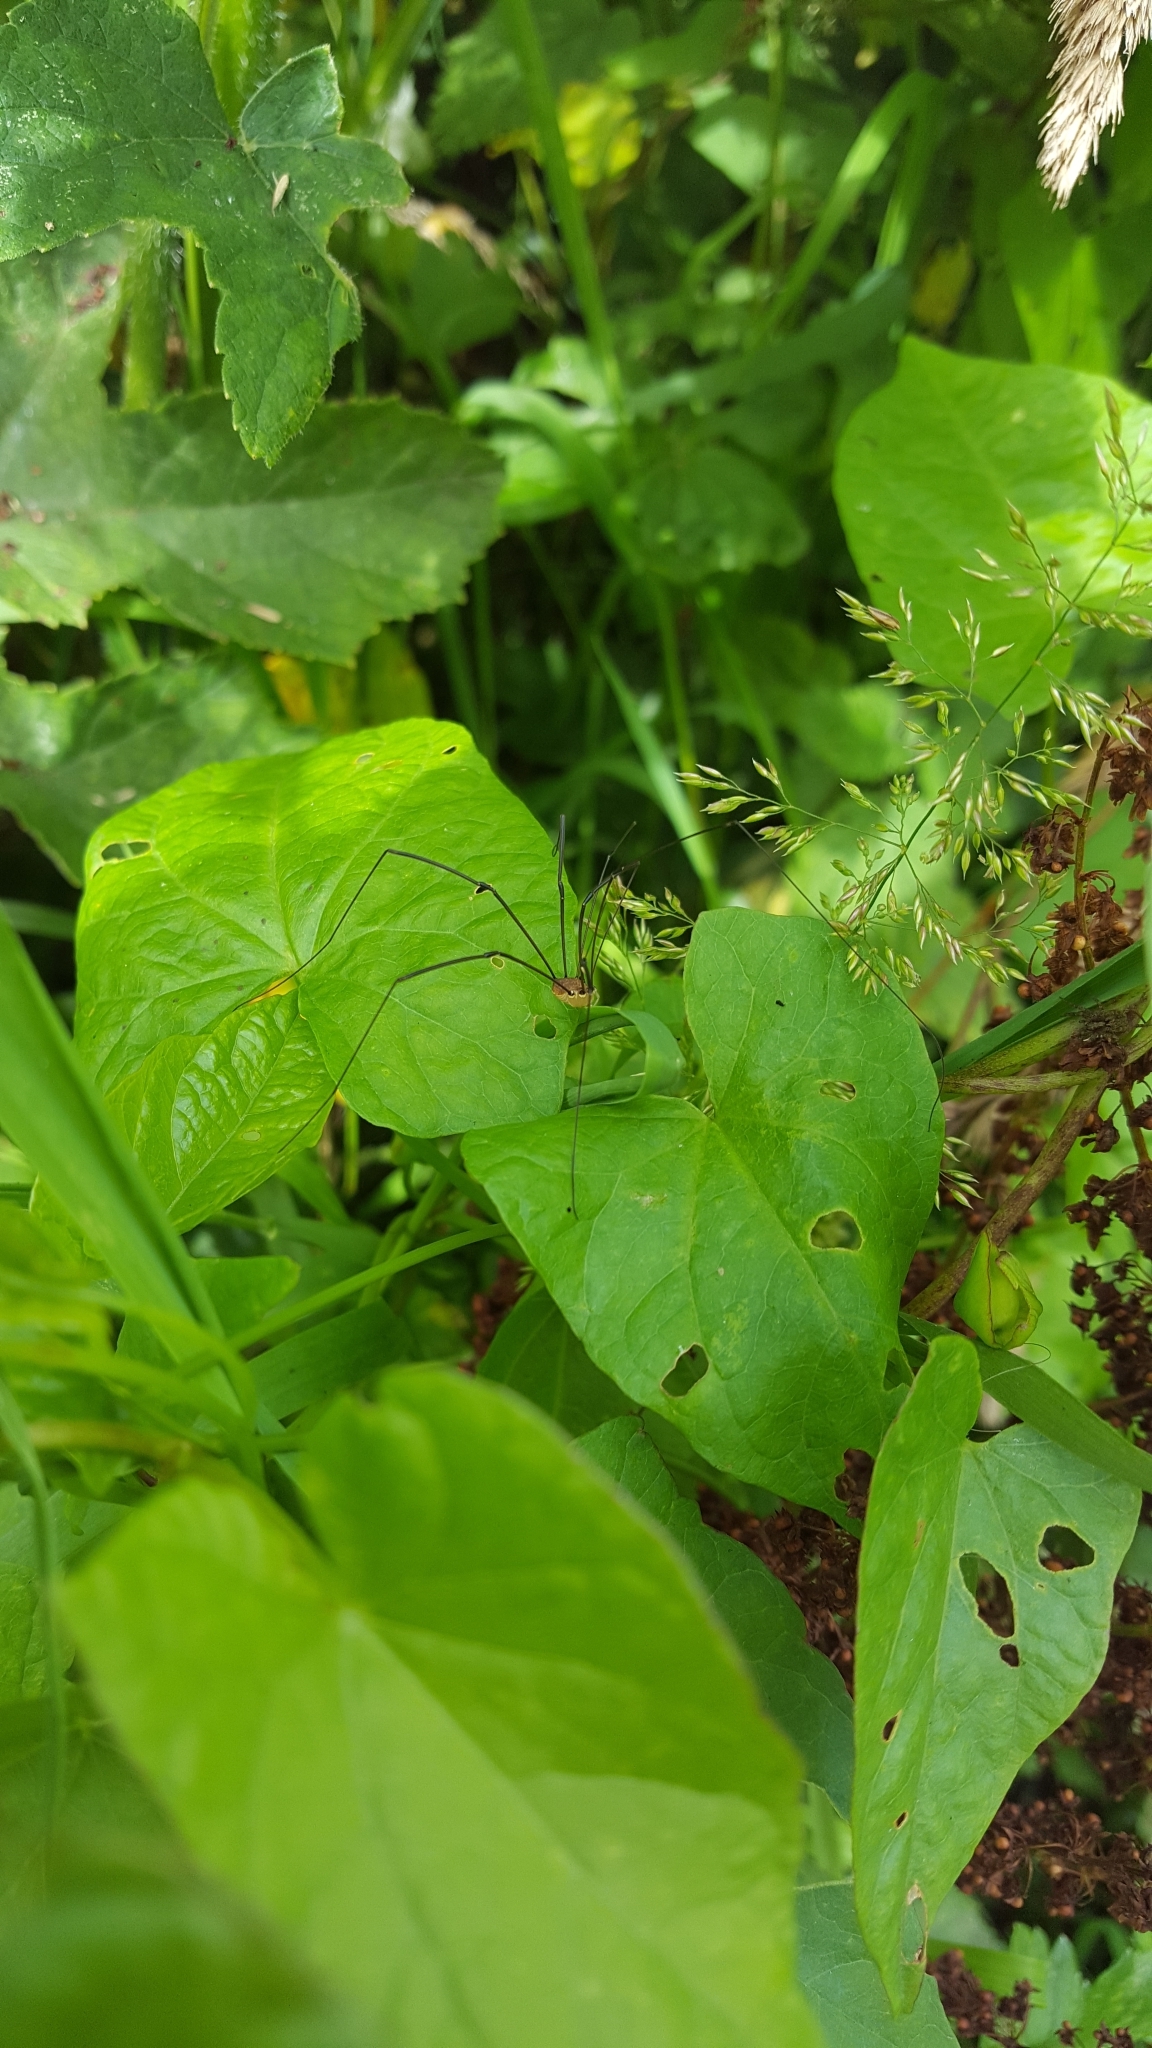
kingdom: Animalia
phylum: Arthropoda
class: Arachnida
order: Opiliones
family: Sclerosomatidae
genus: Leiobunum
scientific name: Leiobunum rotundum
